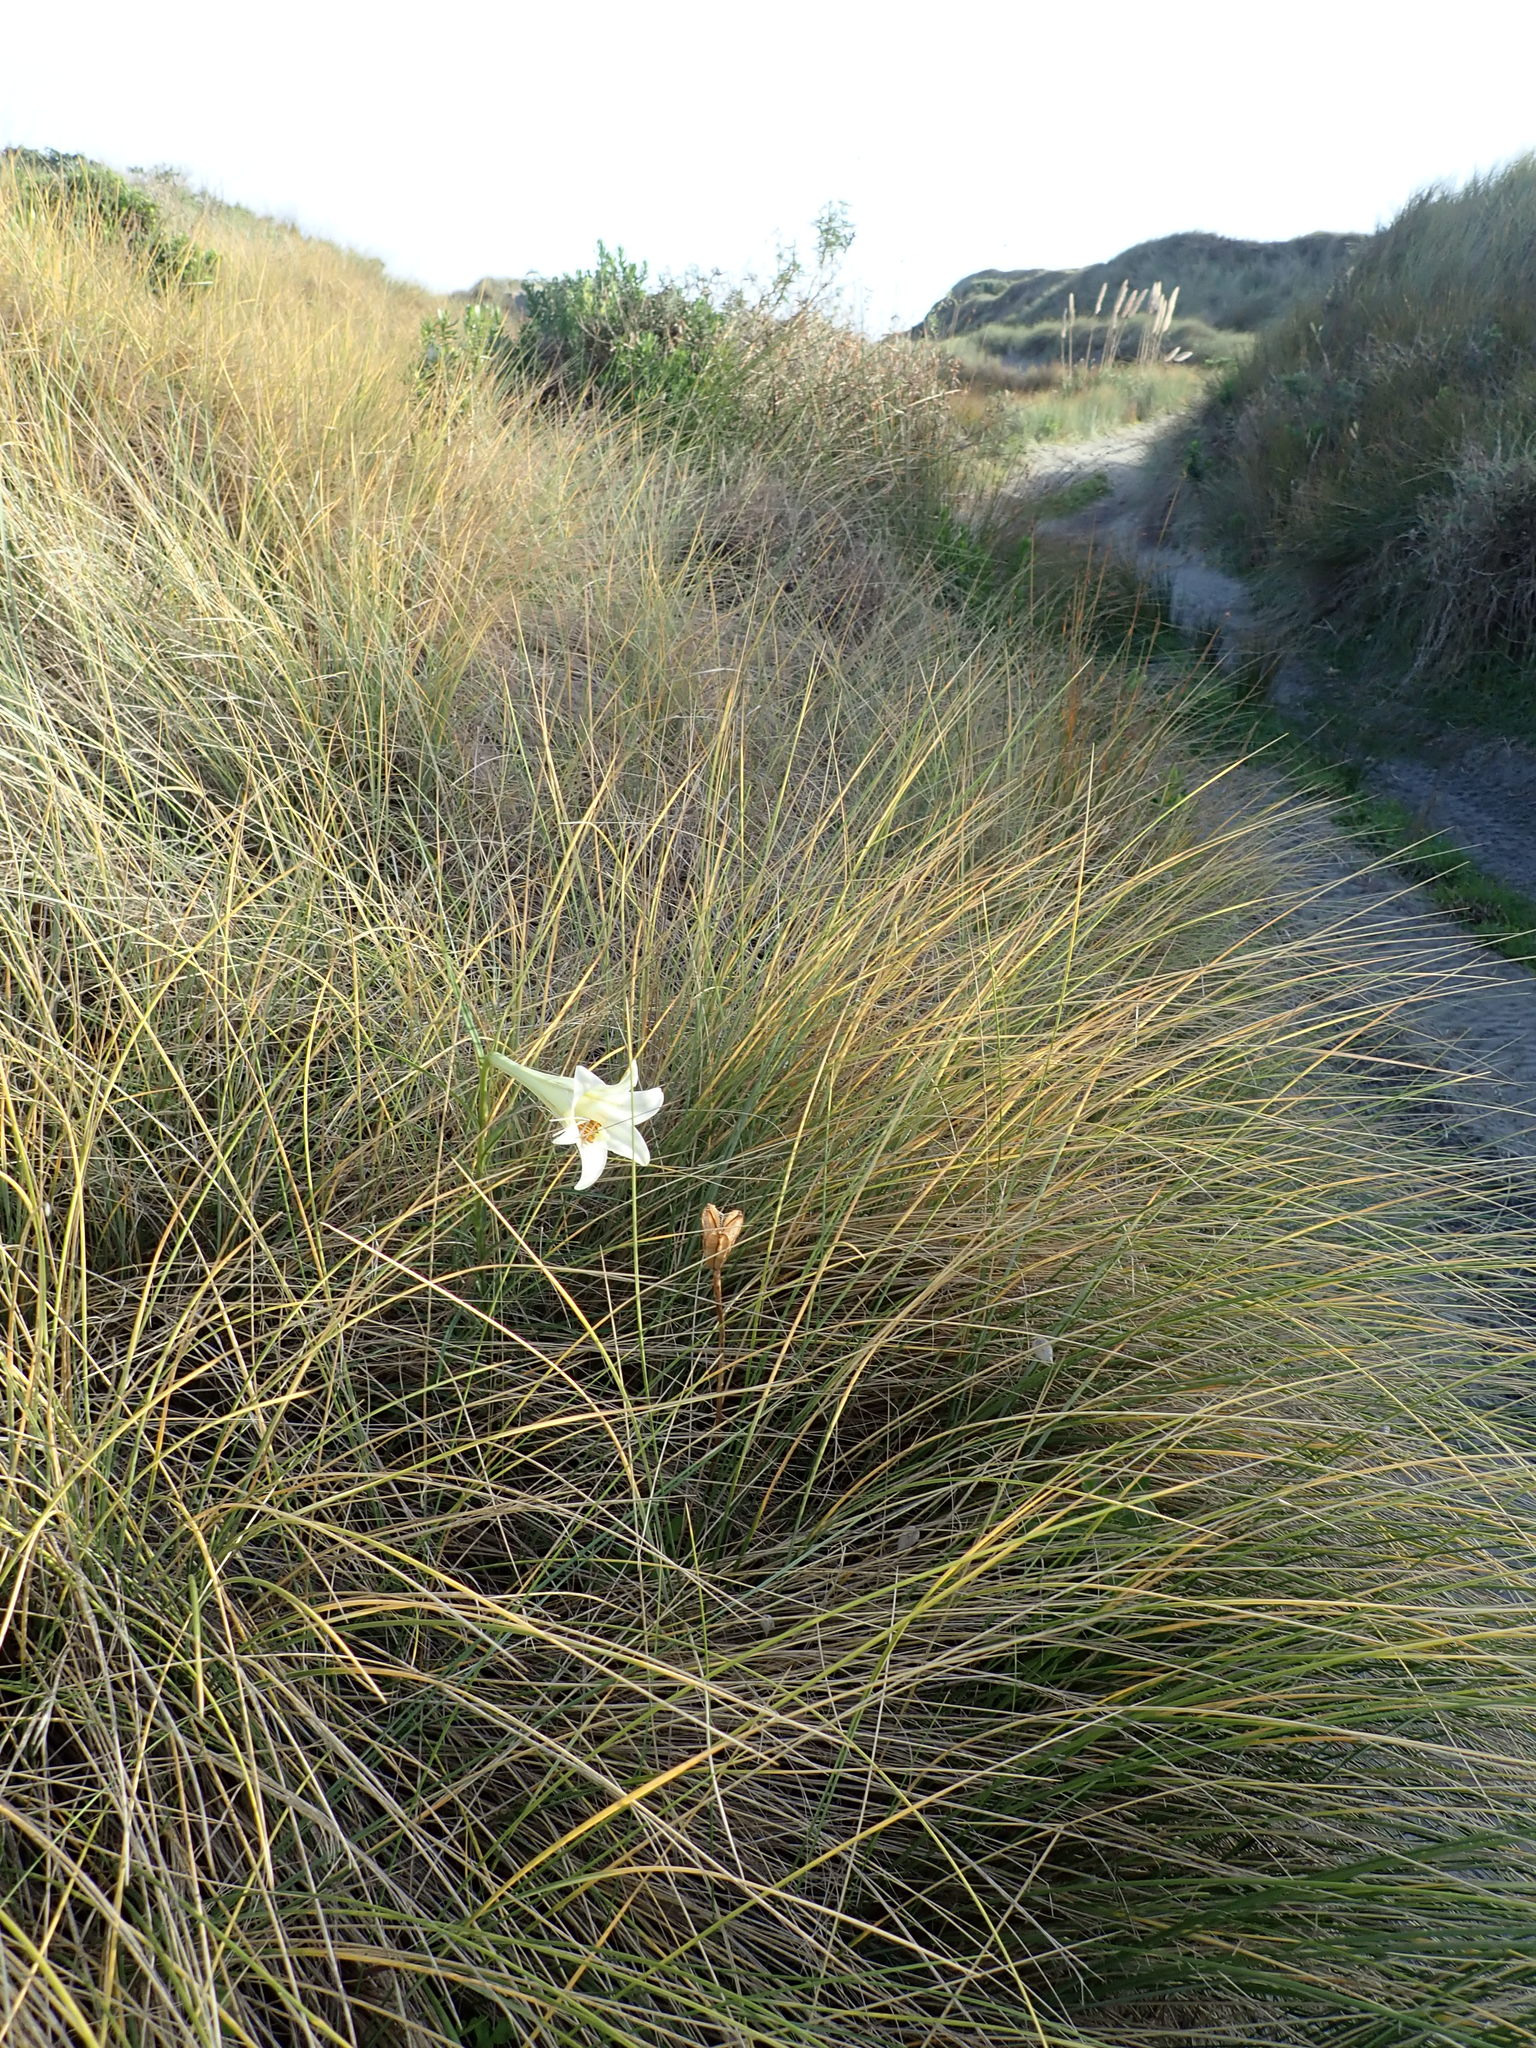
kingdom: Plantae
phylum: Tracheophyta
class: Liliopsida
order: Liliales
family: Liliaceae
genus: Lilium
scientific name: Lilium formosanum
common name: Formosa lily
